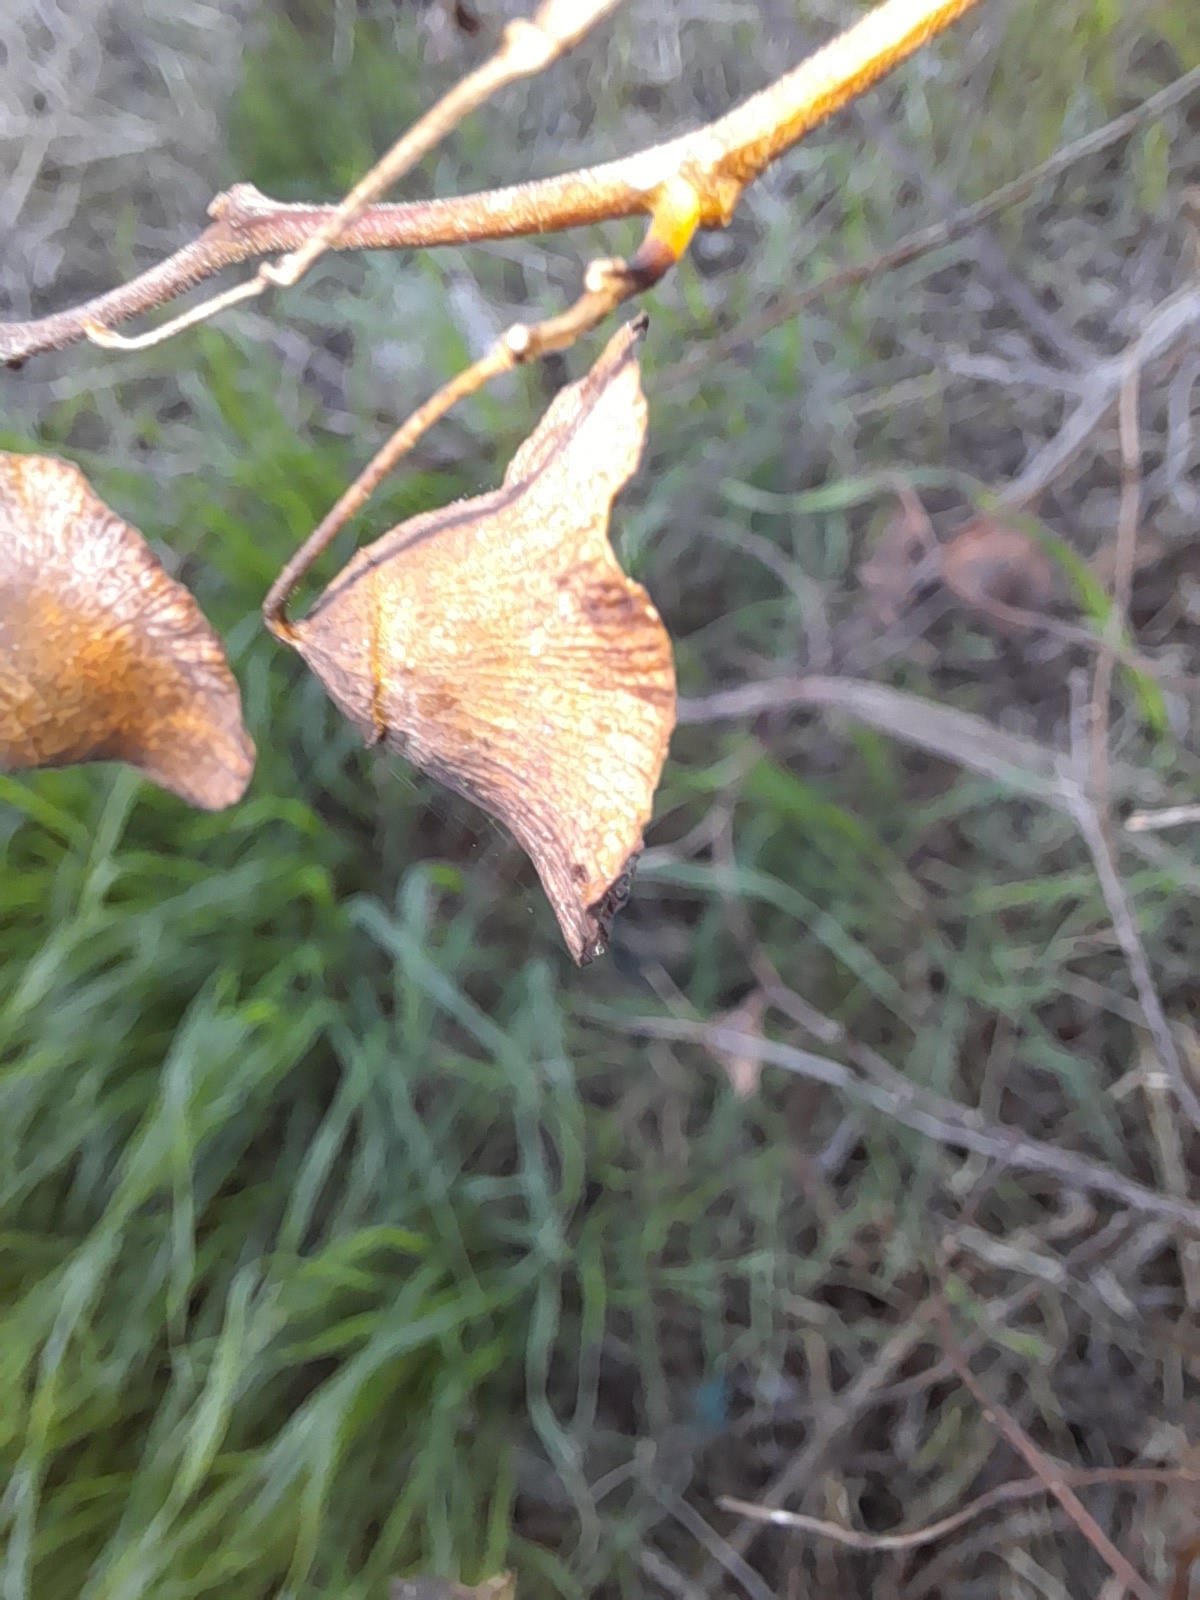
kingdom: Plantae
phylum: Tracheophyta
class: Magnoliopsida
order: Rosales
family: Rhamnaceae
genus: Paliurus
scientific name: Paliurus spina-christi
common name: Jeruselem thorn
